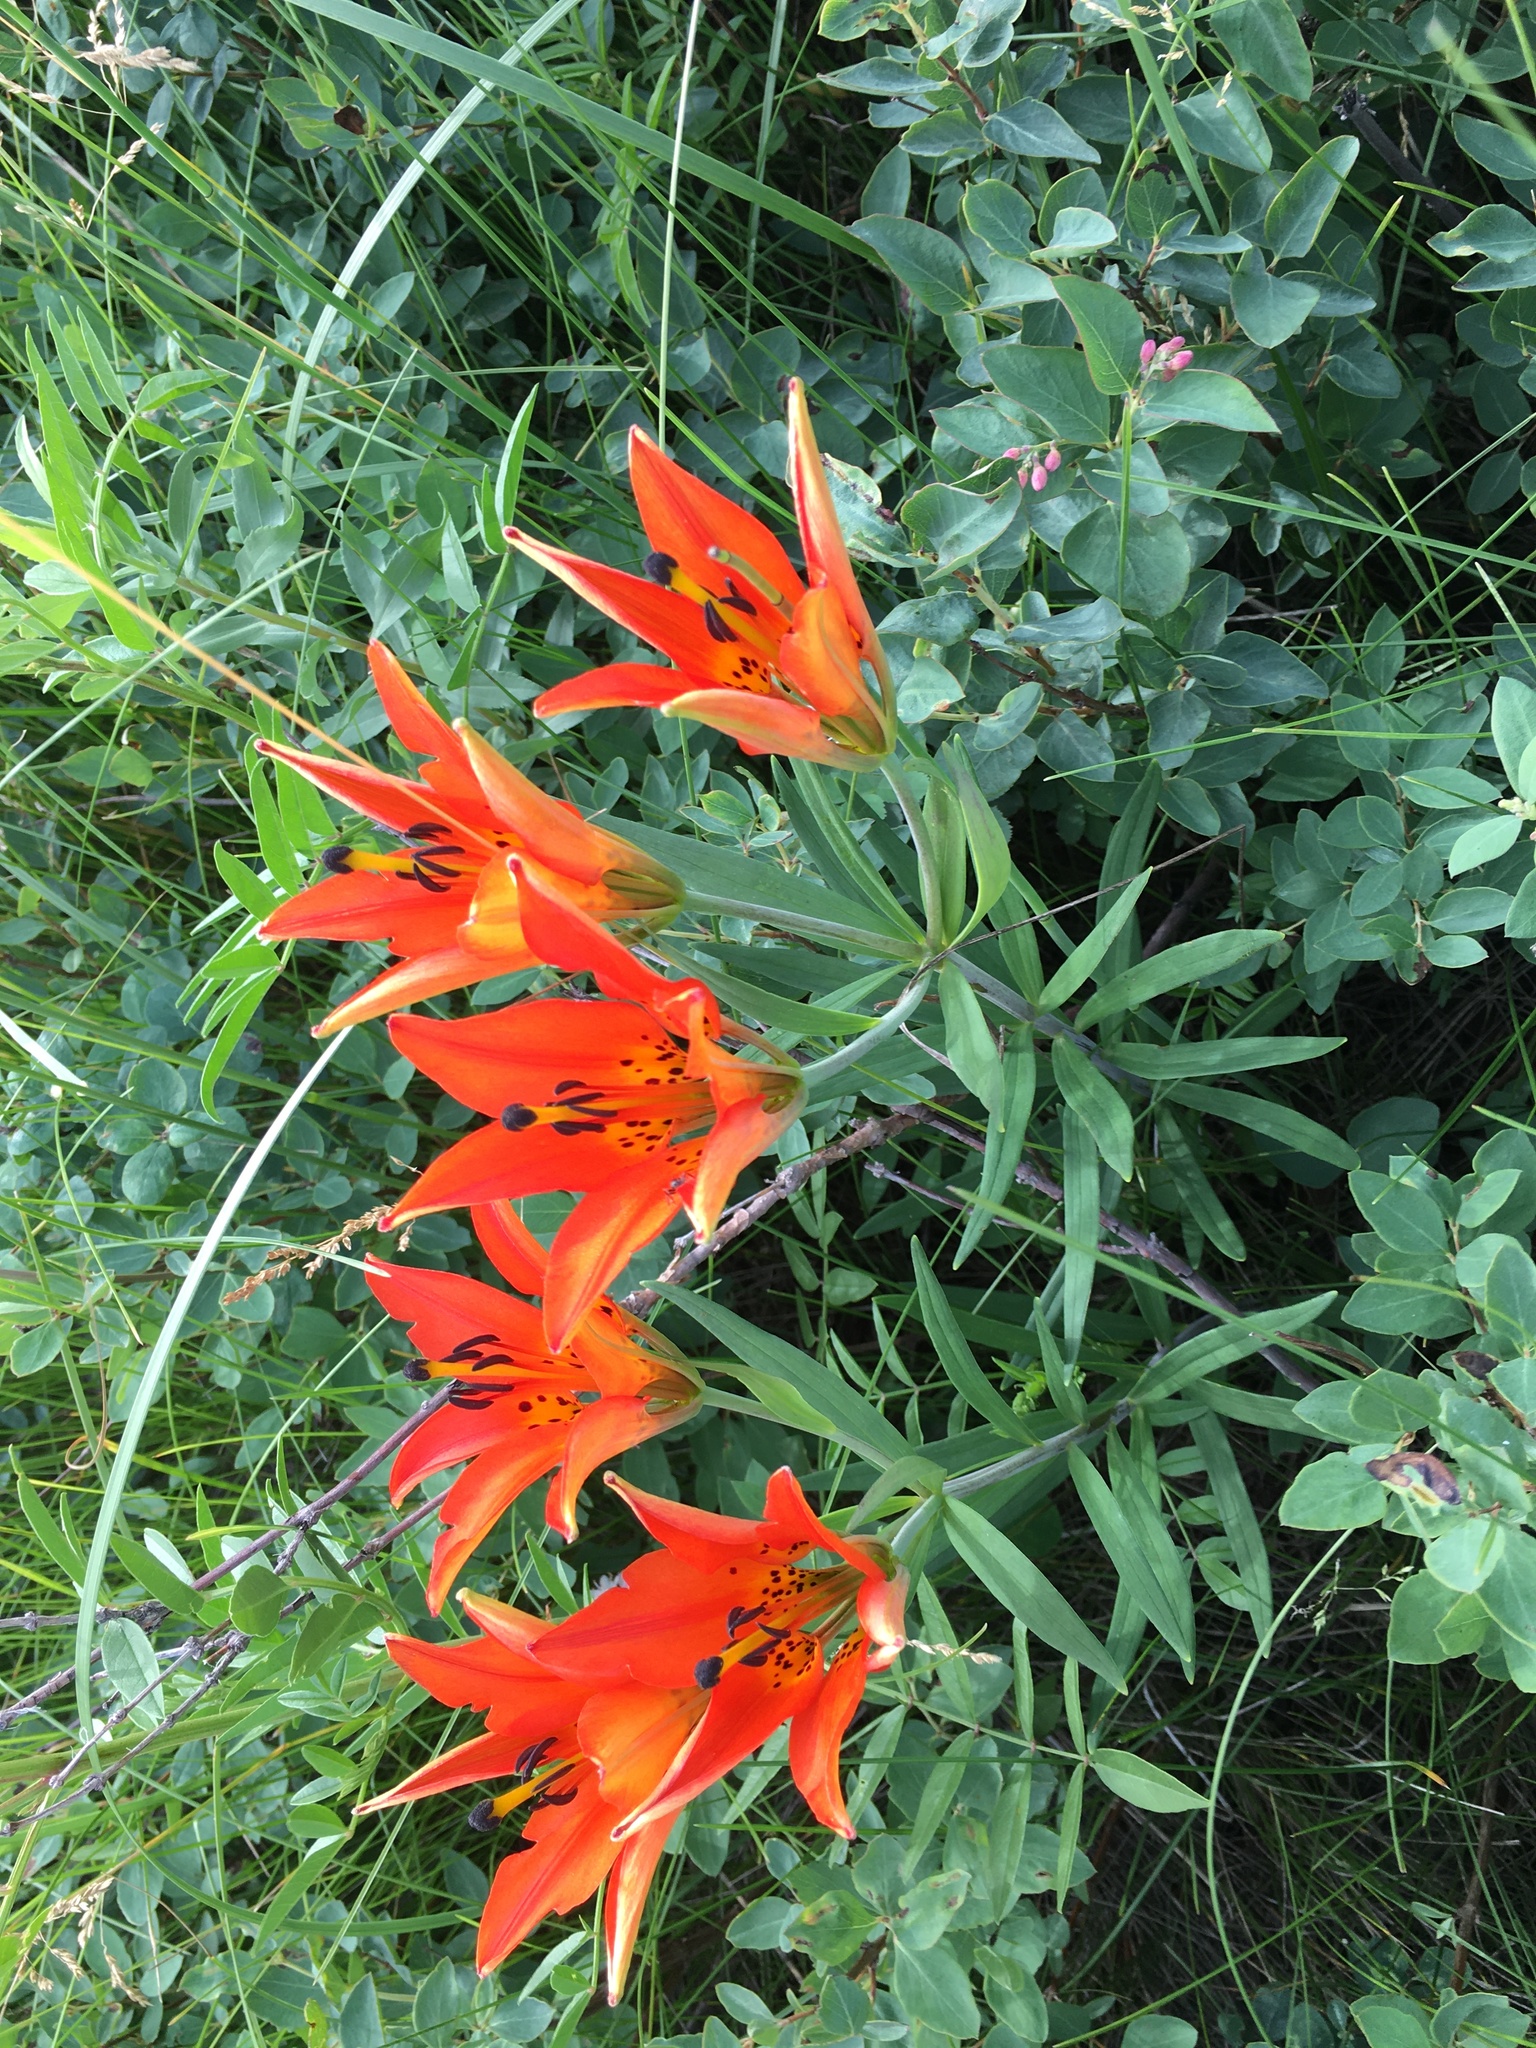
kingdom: Plantae
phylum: Tracheophyta
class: Liliopsida
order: Liliales
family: Liliaceae
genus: Lilium
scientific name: Lilium philadelphicum
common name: Red lily
